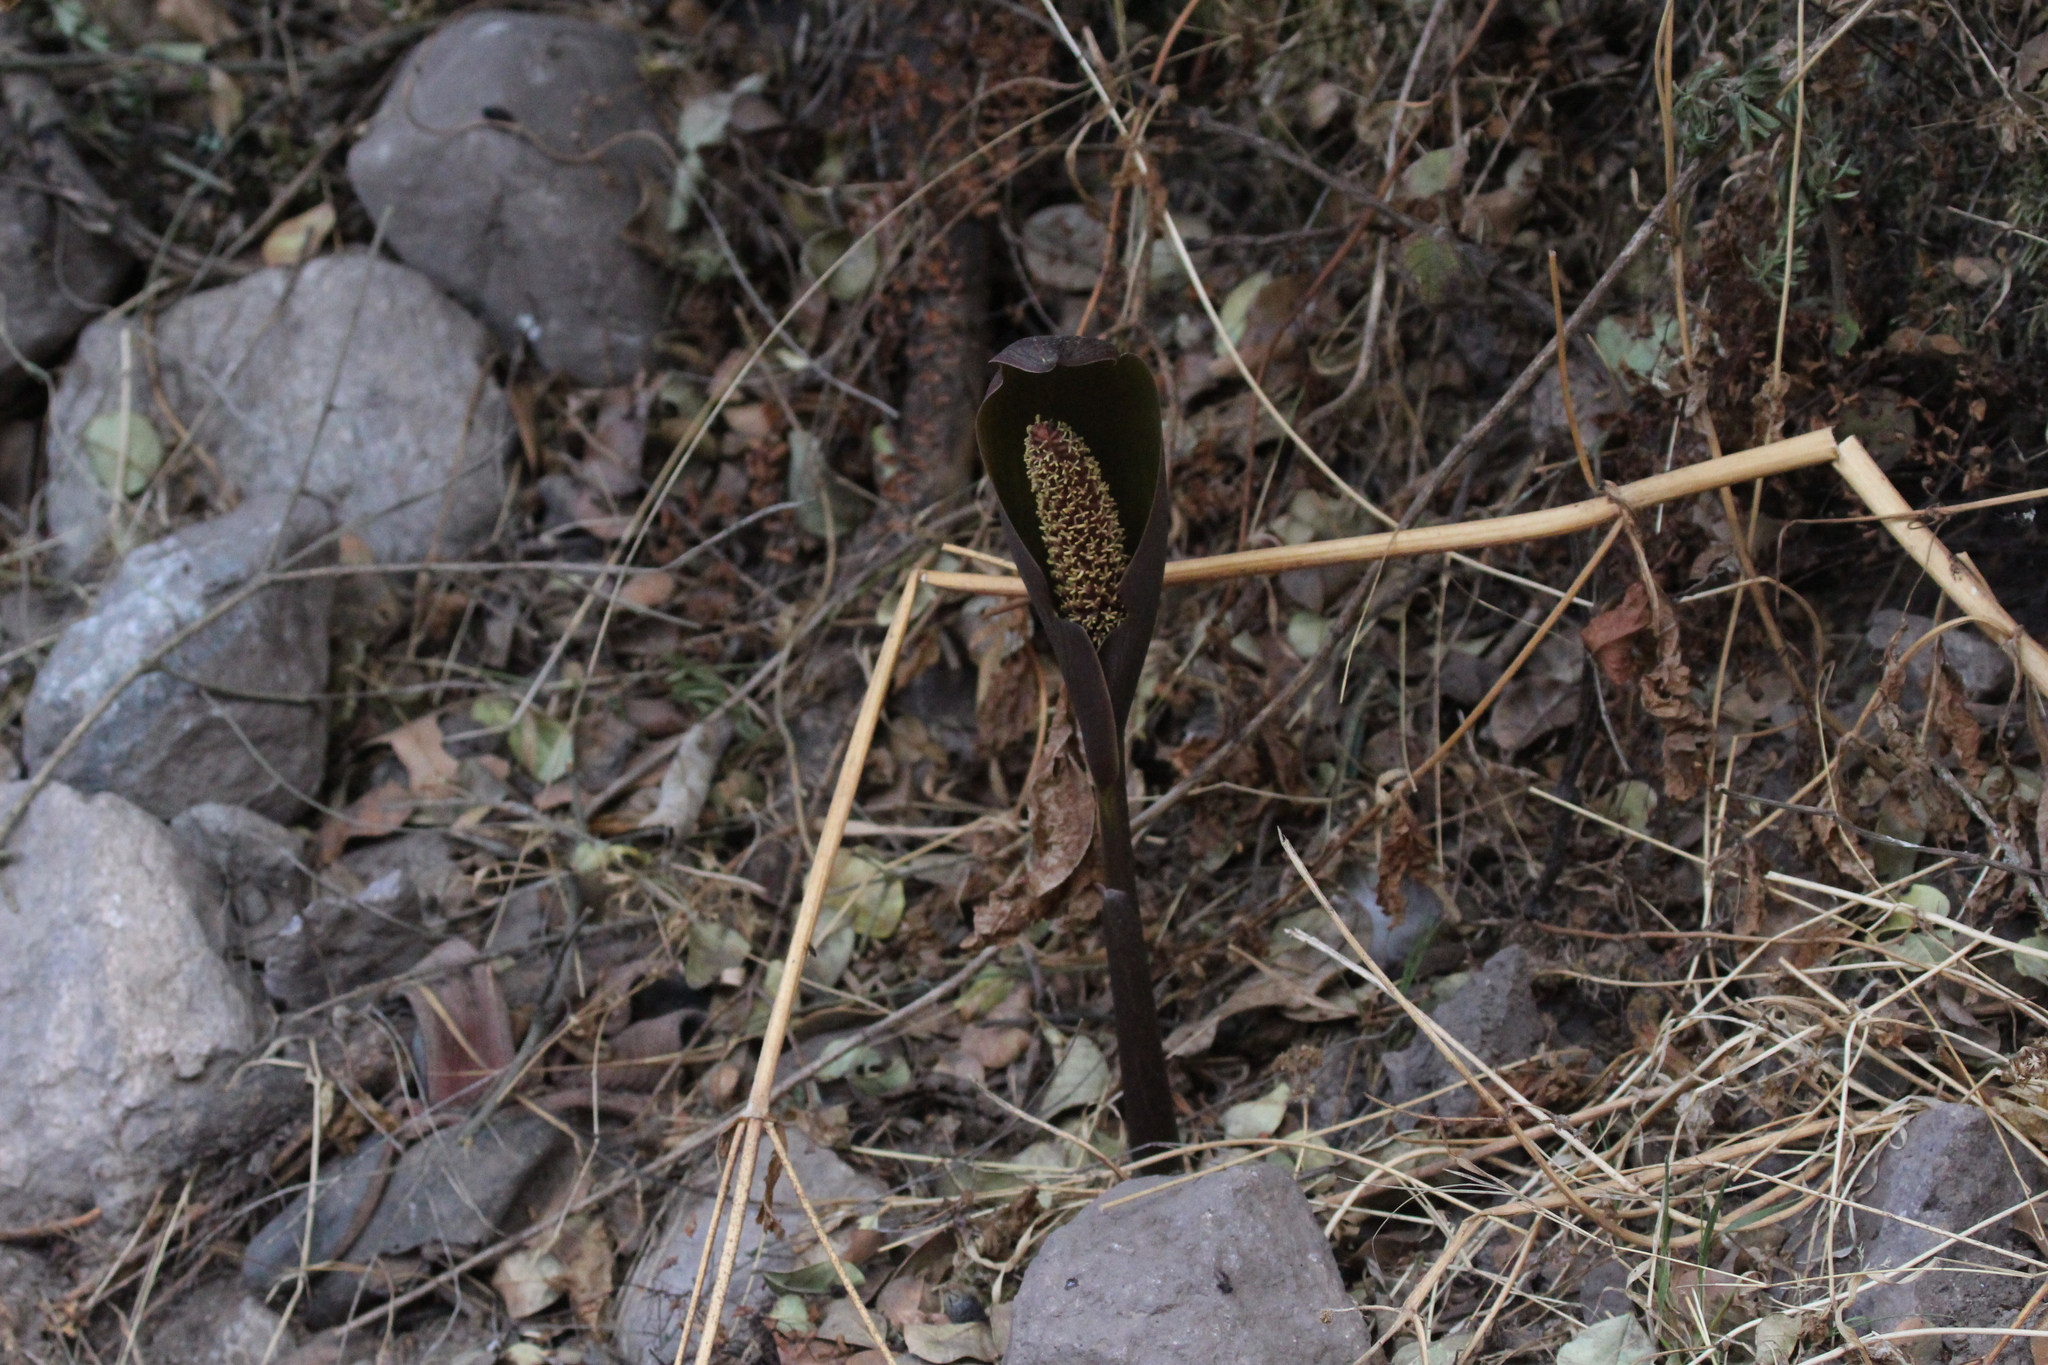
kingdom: Plantae
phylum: Tracheophyta
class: Liliopsida
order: Alismatales
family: Araceae
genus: Gorgonidium
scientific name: Gorgonidium vargasii
